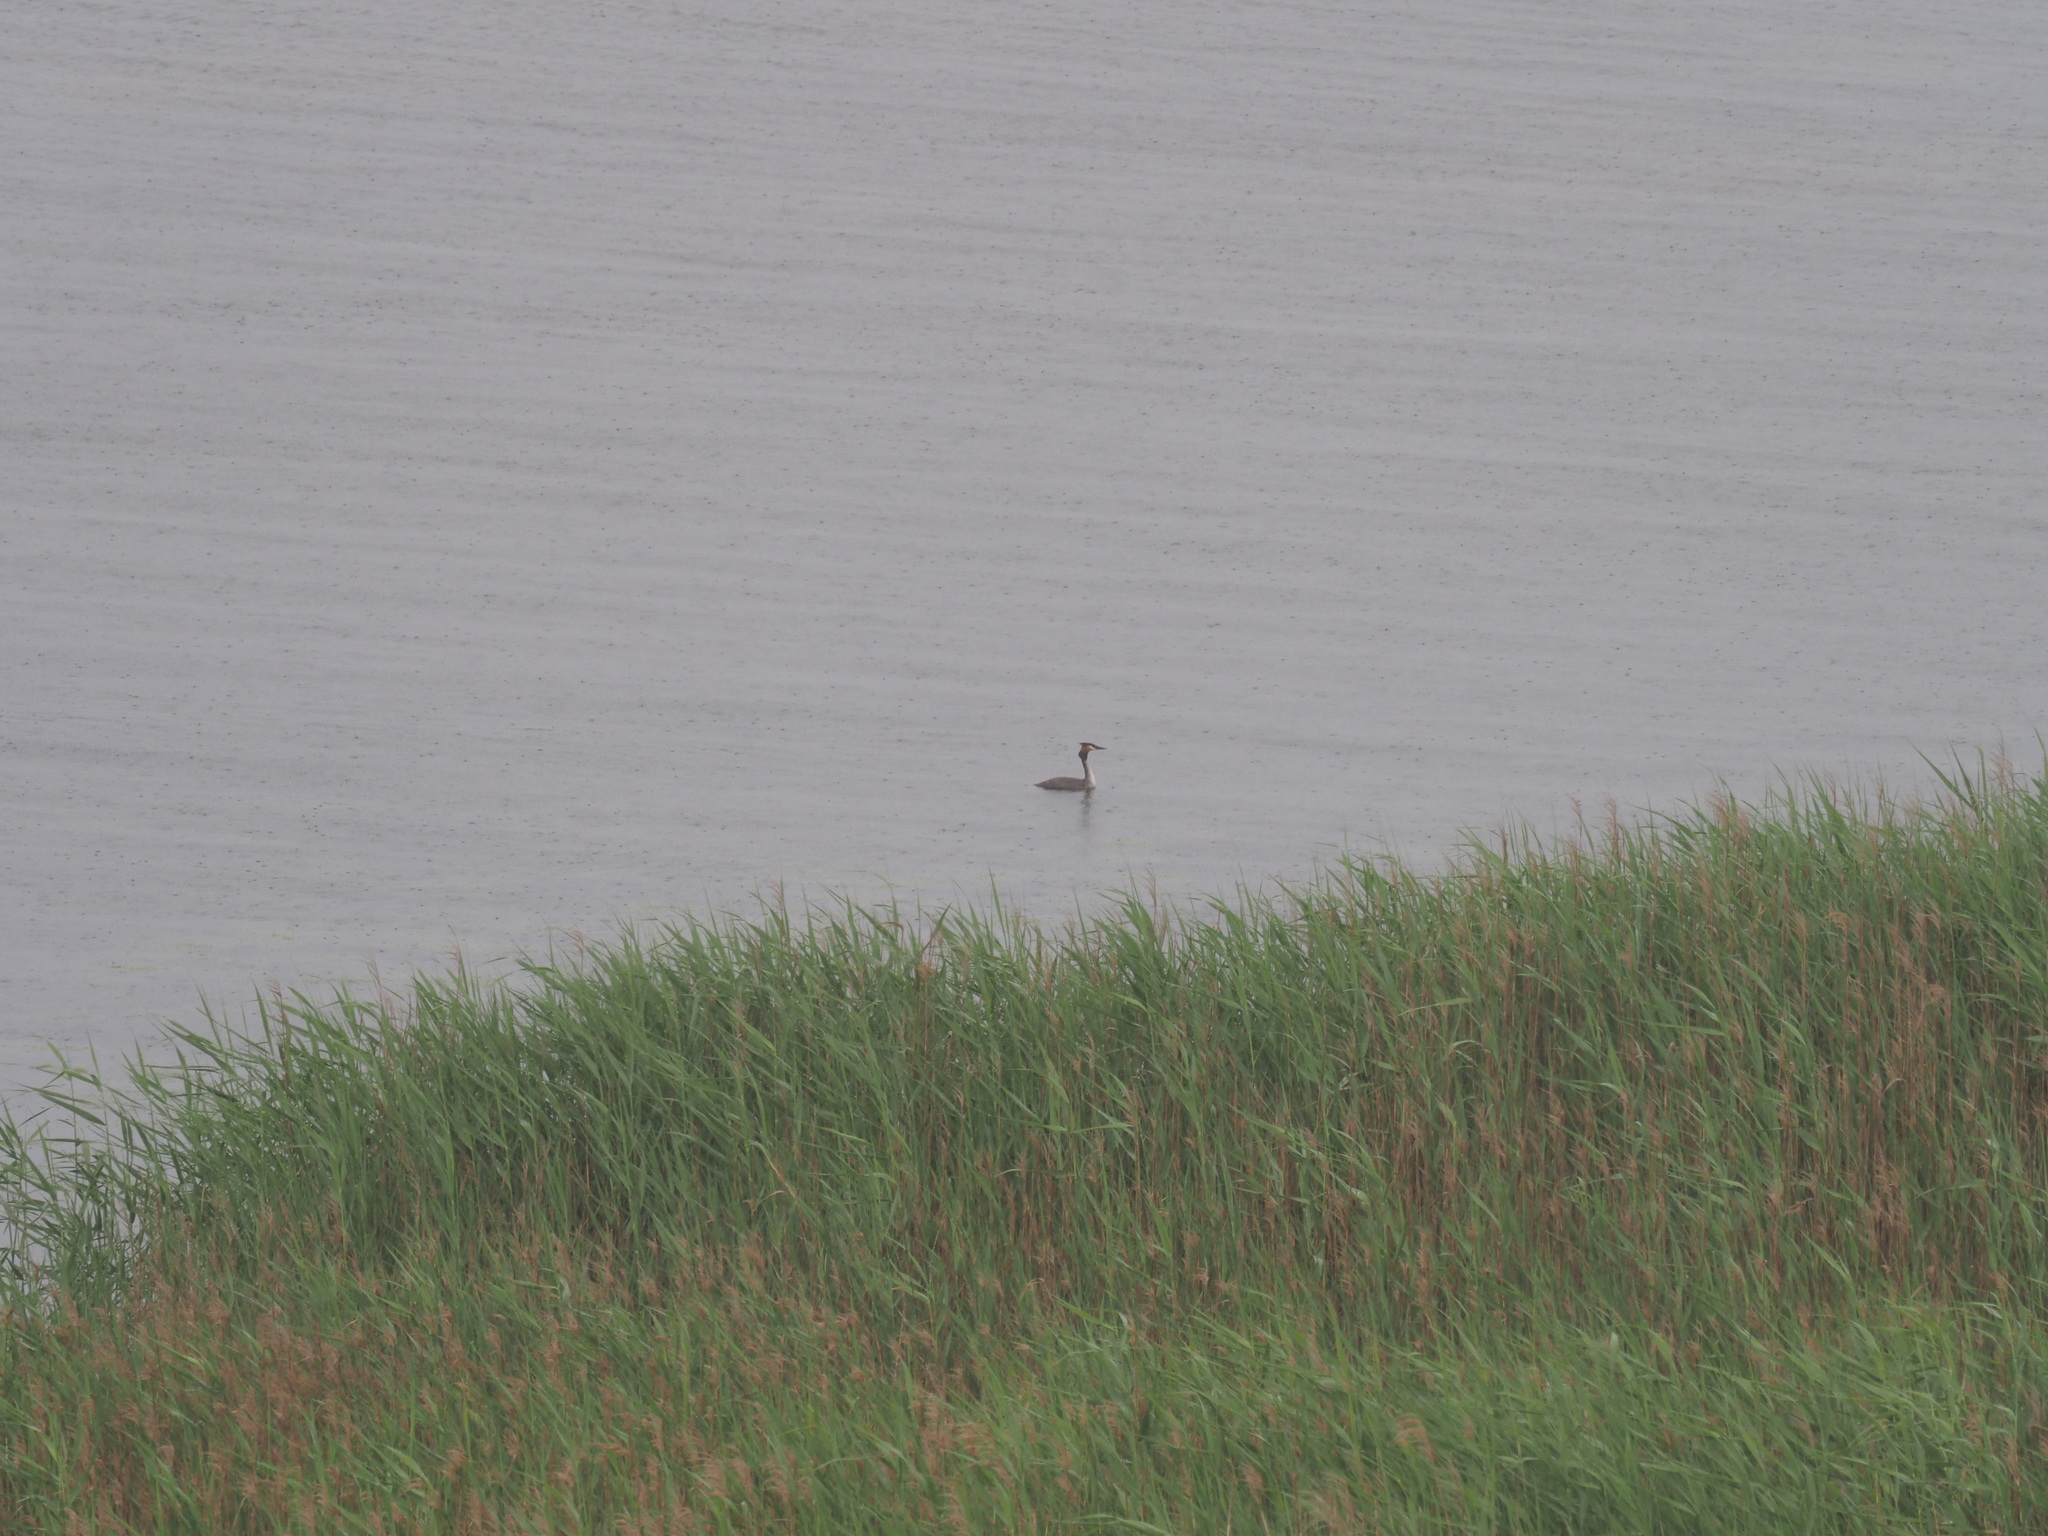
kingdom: Animalia
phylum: Chordata
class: Aves
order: Podicipediformes
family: Podicipedidae
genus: Podiceps
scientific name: Podiceps cristatus
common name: Great crested grebe
